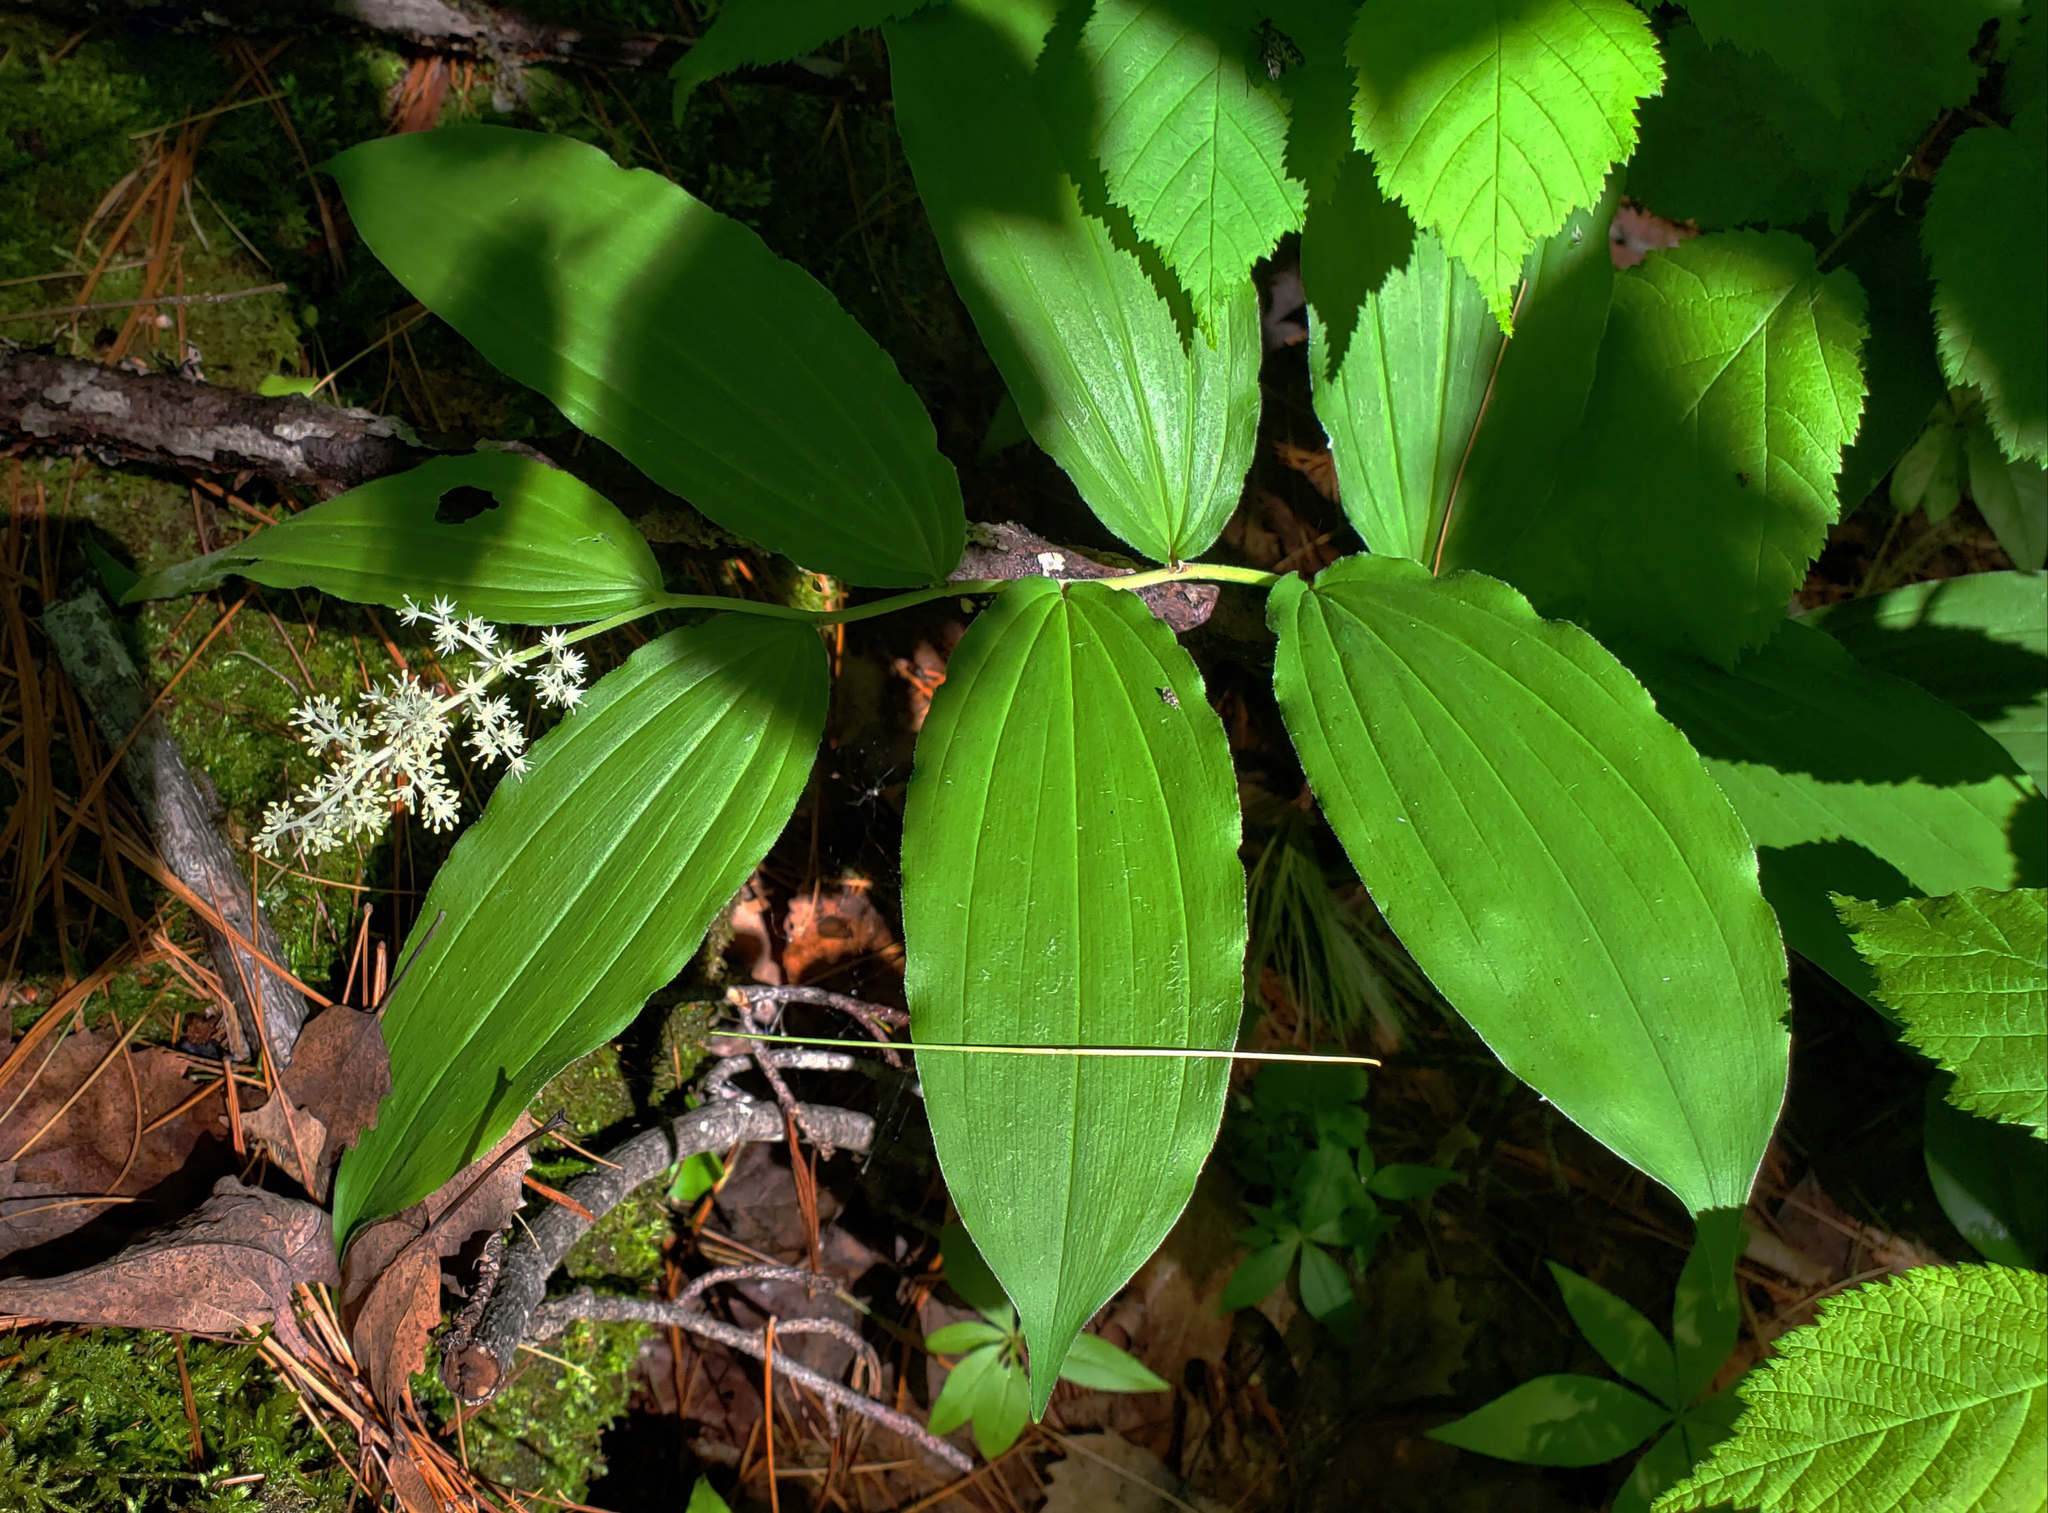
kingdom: Plantae
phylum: Tracheophyta
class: Liliopsida
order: Asparagales
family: Asparagaceae
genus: Maianthemum
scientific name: Maianthemum racemosum
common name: False spikenard
